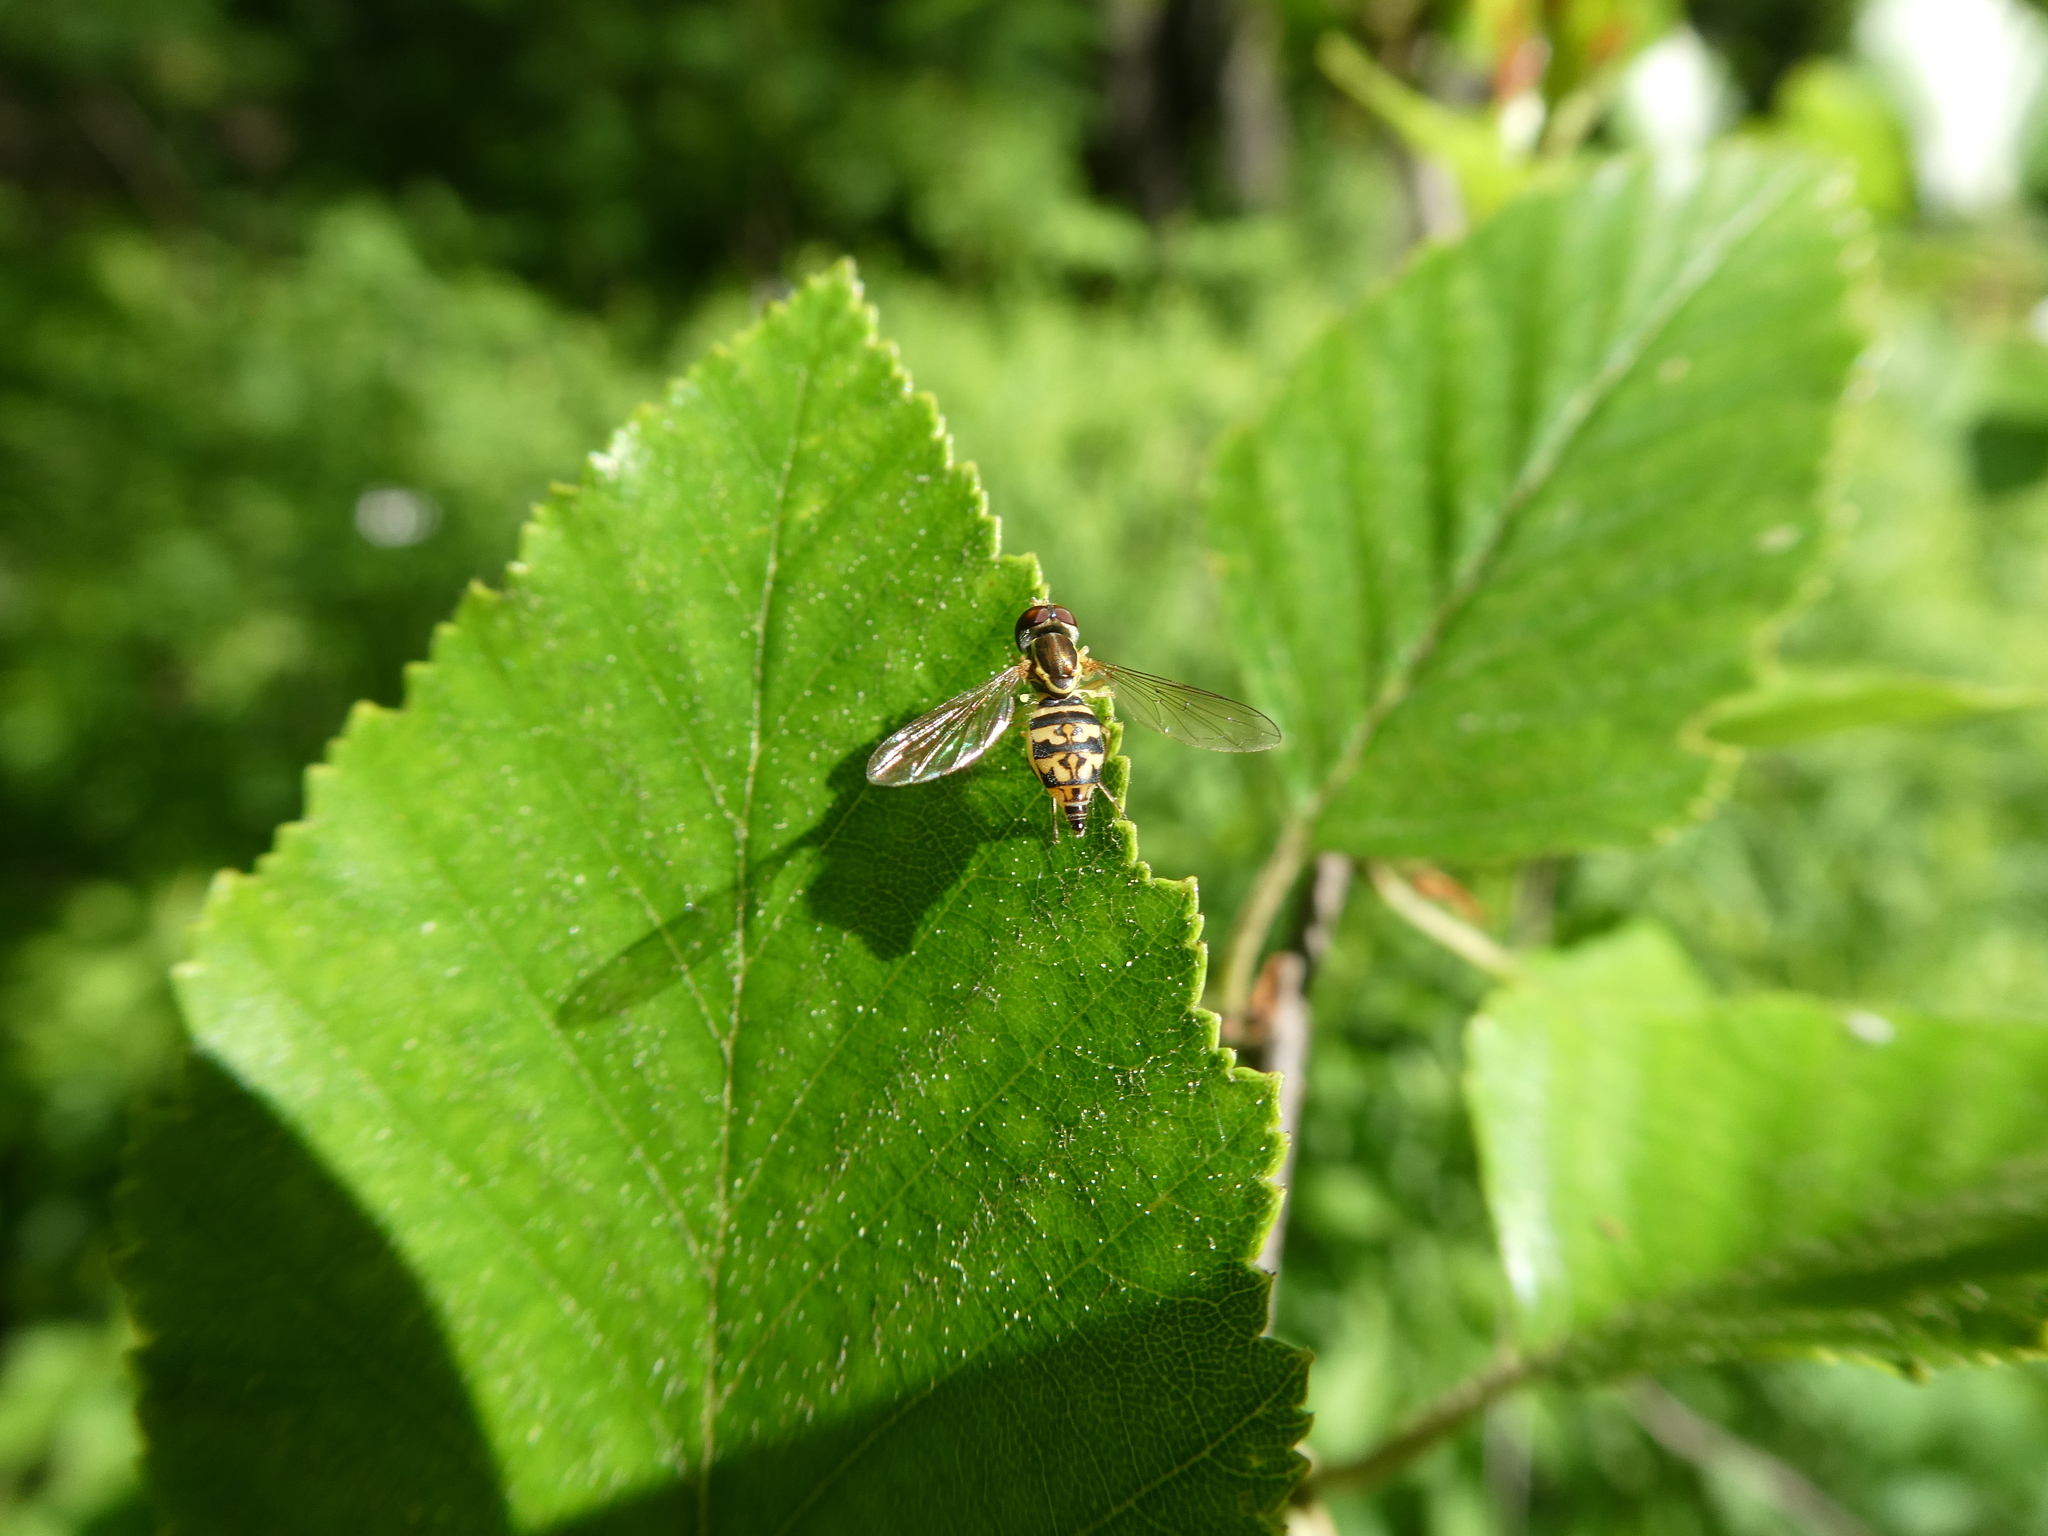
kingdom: Animalia
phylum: Arthropoda
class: Insecta
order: Diptera
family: Syrphidae
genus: Toxomerus
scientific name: Toxomerus geminatus
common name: Eastern calligrapher
